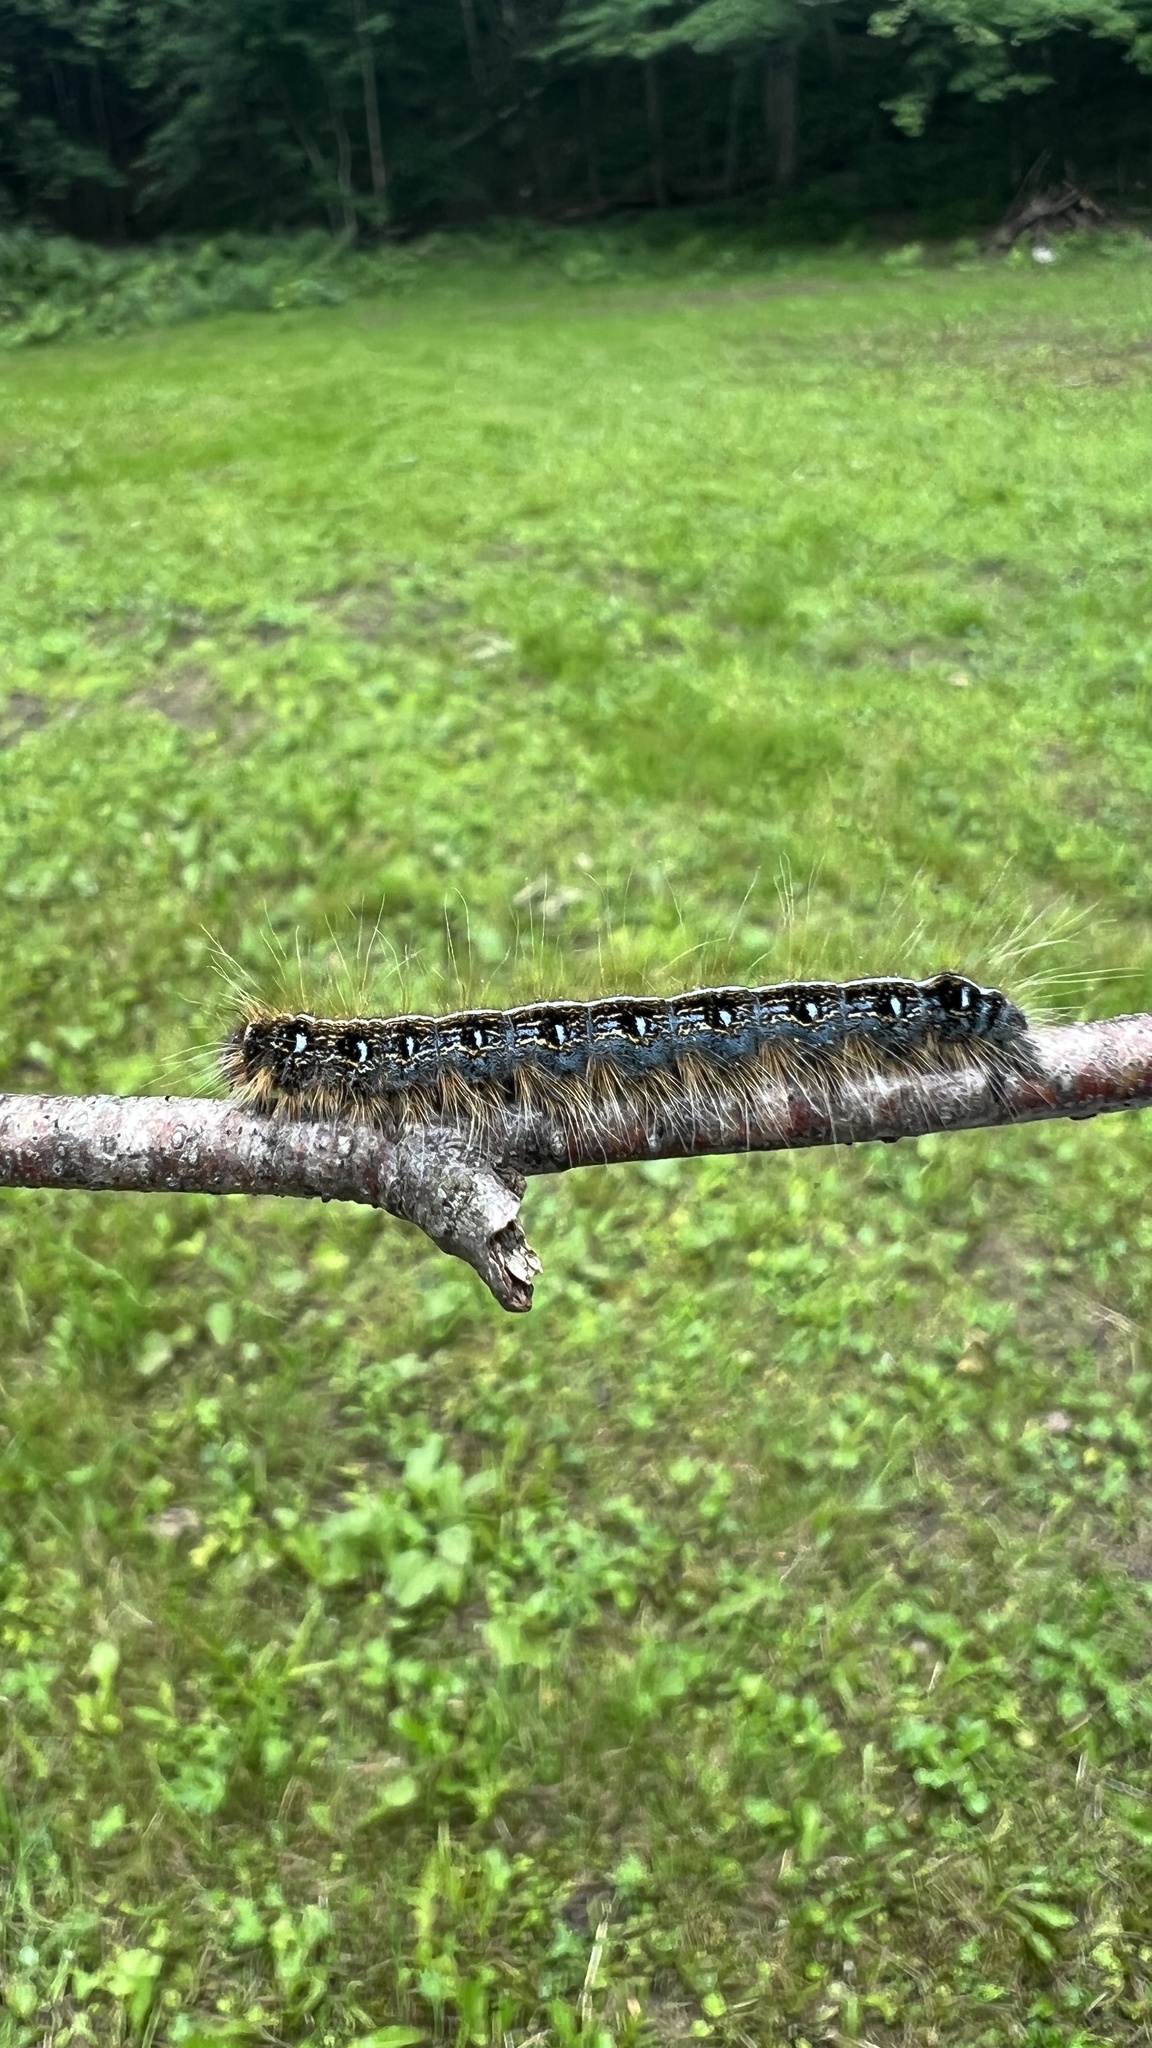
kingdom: Animalia
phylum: Arthropoda
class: Insecta
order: Lepidoptera
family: Lasiocampidae
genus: Malacosoma
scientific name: Malacosoma americana
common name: Eastern tent caterpillar moth
